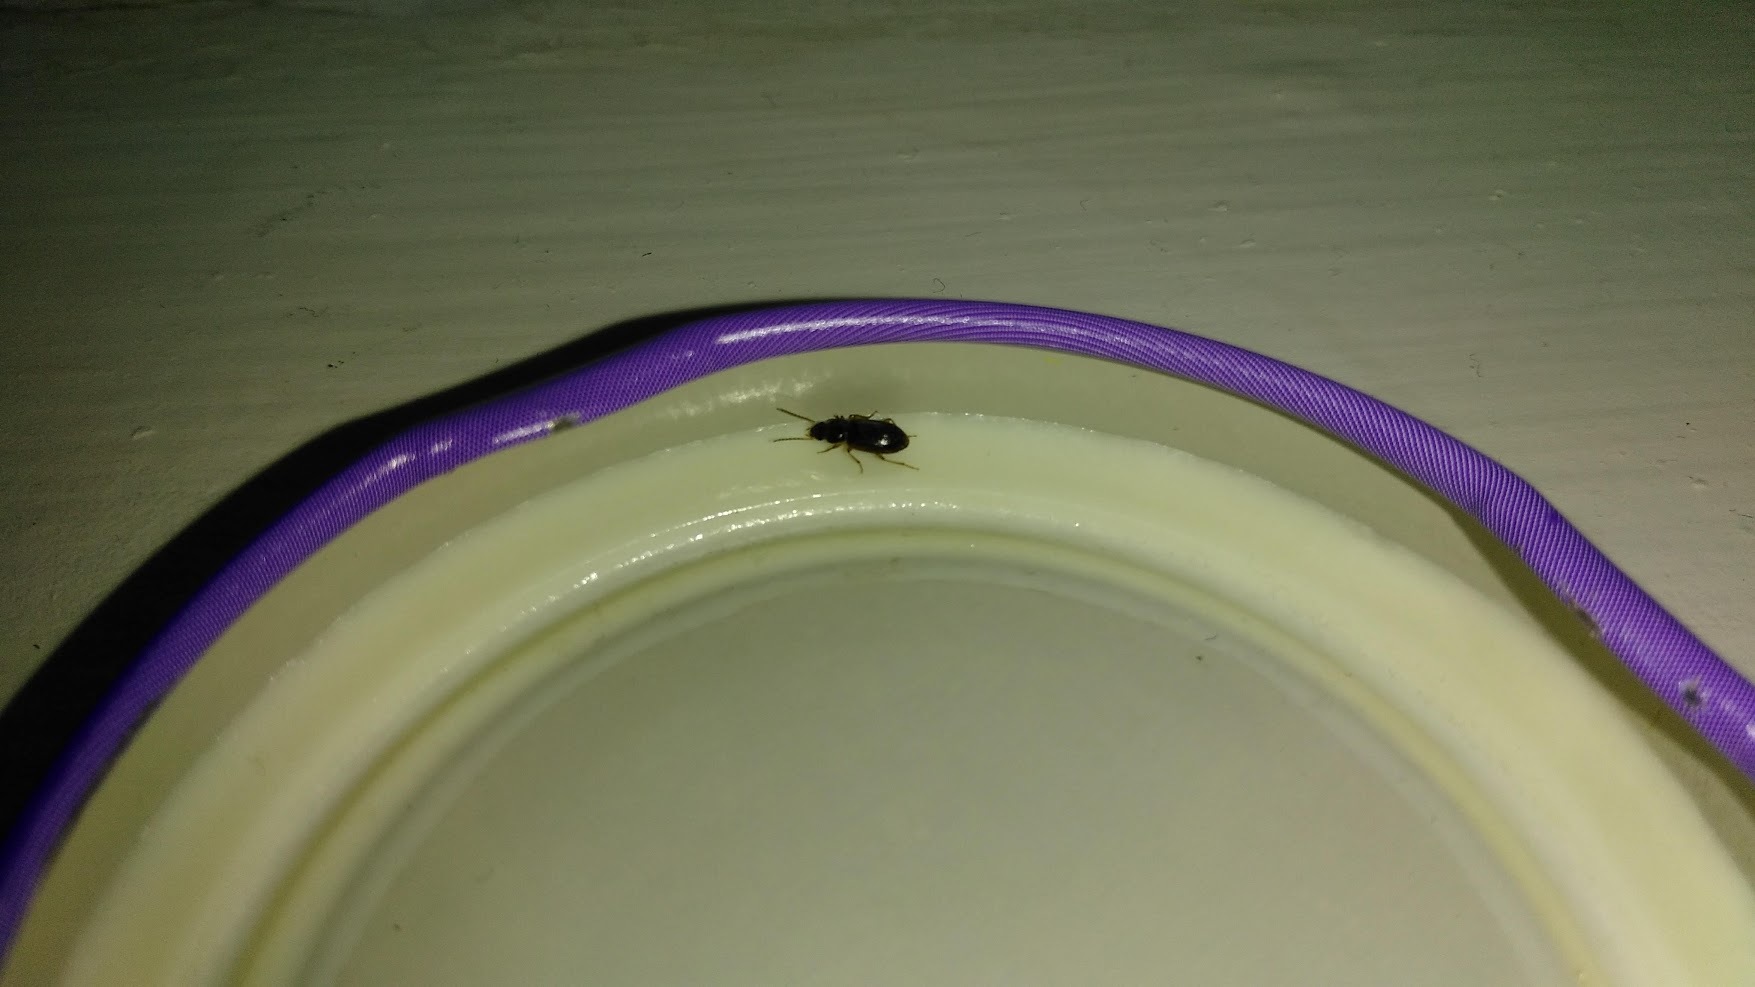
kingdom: Animalia
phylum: Arthropoda
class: Insecta
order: Coleoptera
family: Carabidae
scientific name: Carabidae
